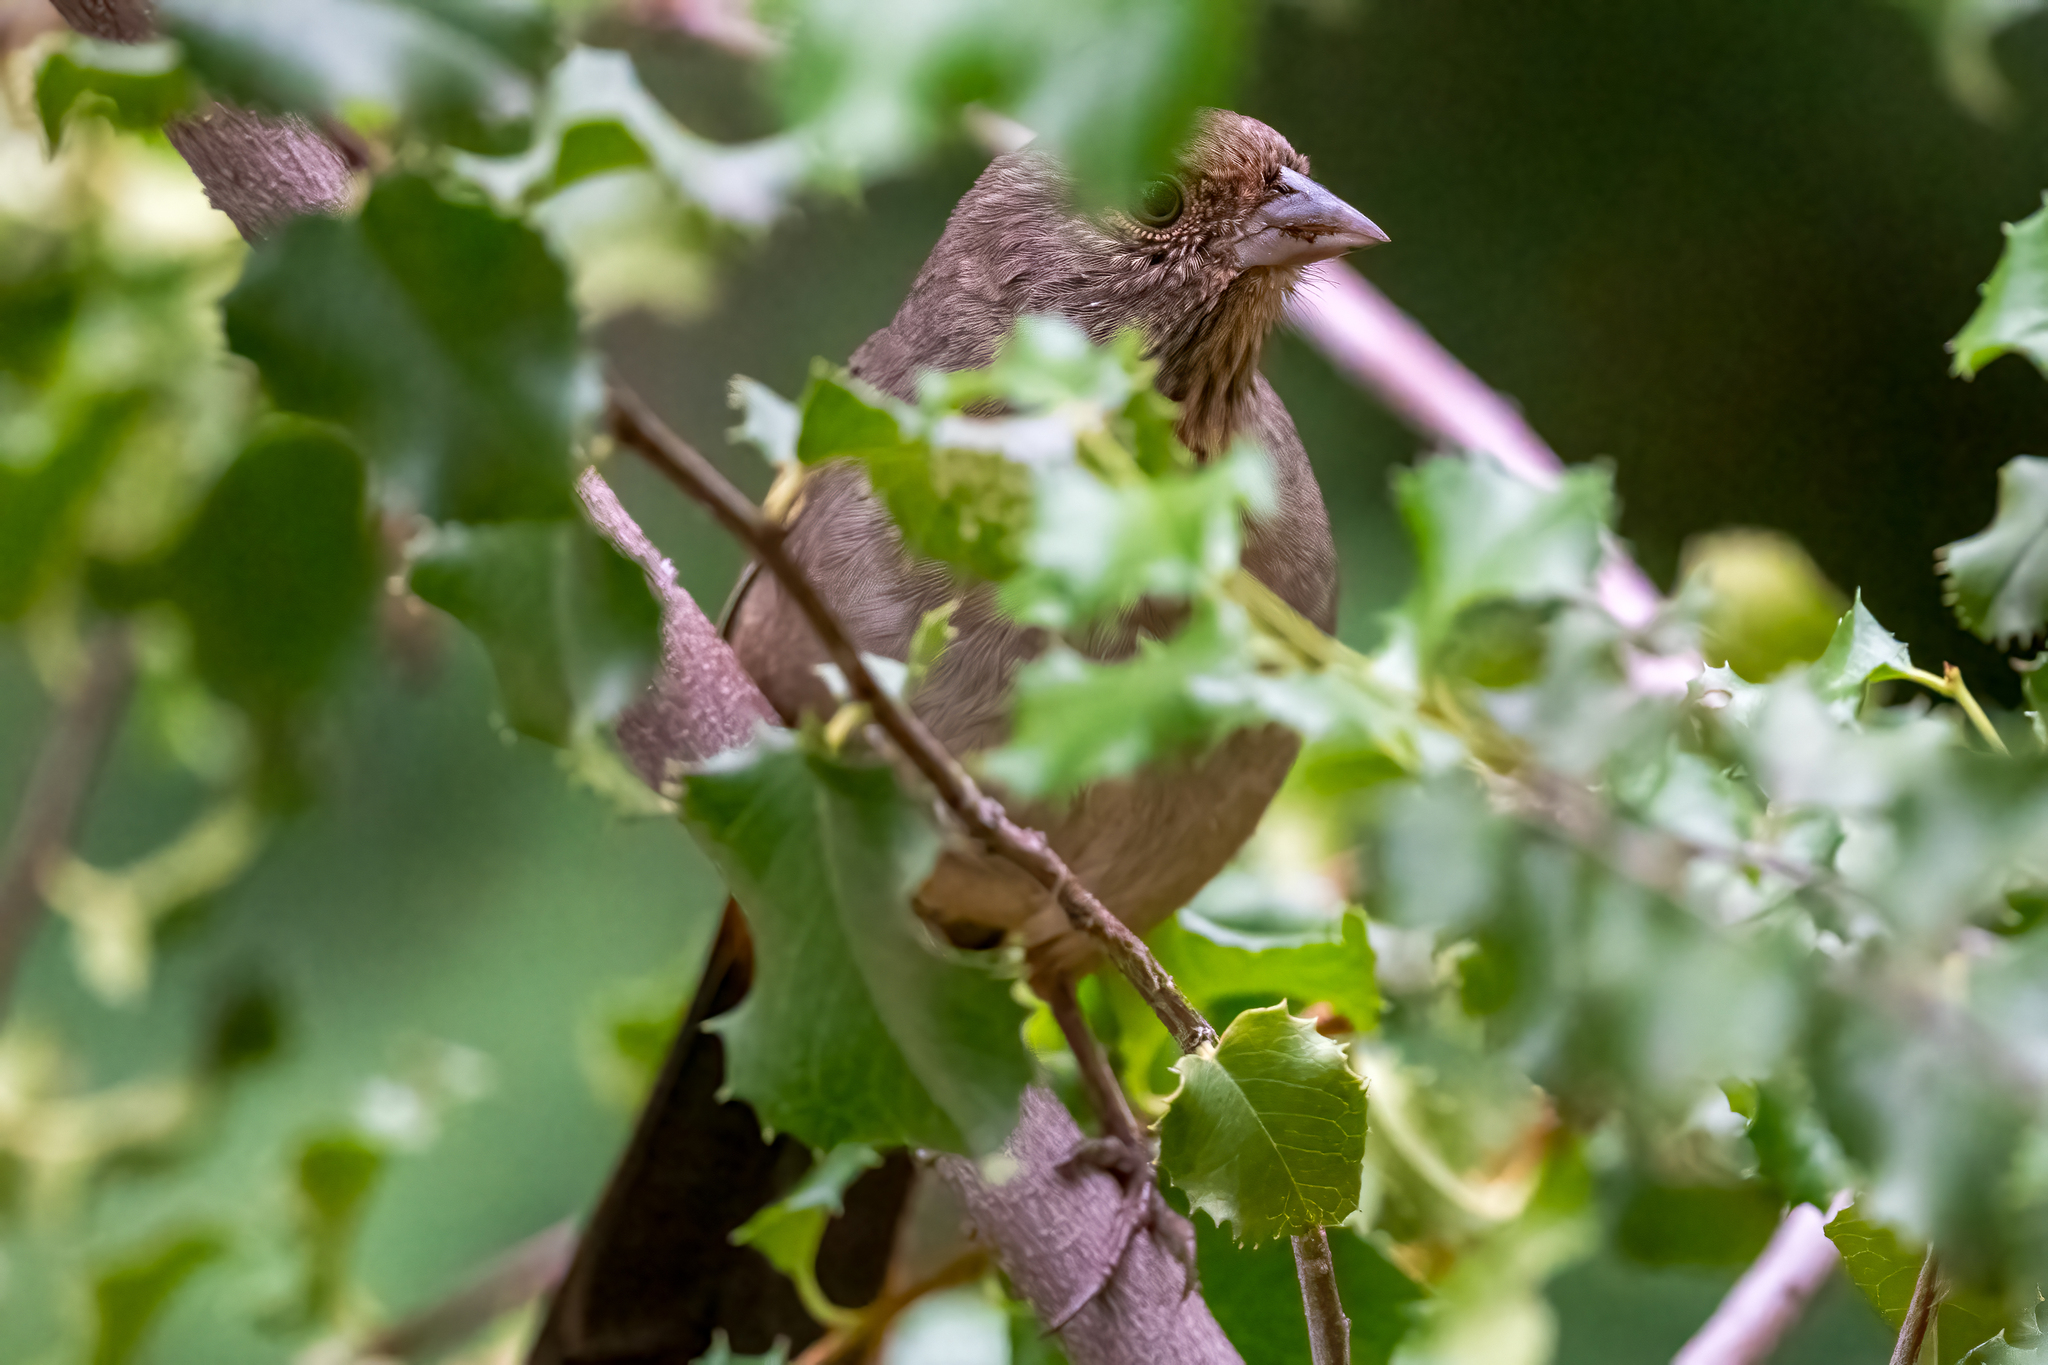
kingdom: Animalia
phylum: Chordata
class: Aves
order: Passeriformes
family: Passerellidae
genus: Melozone
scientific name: Melozone crissalis
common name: California towhee
